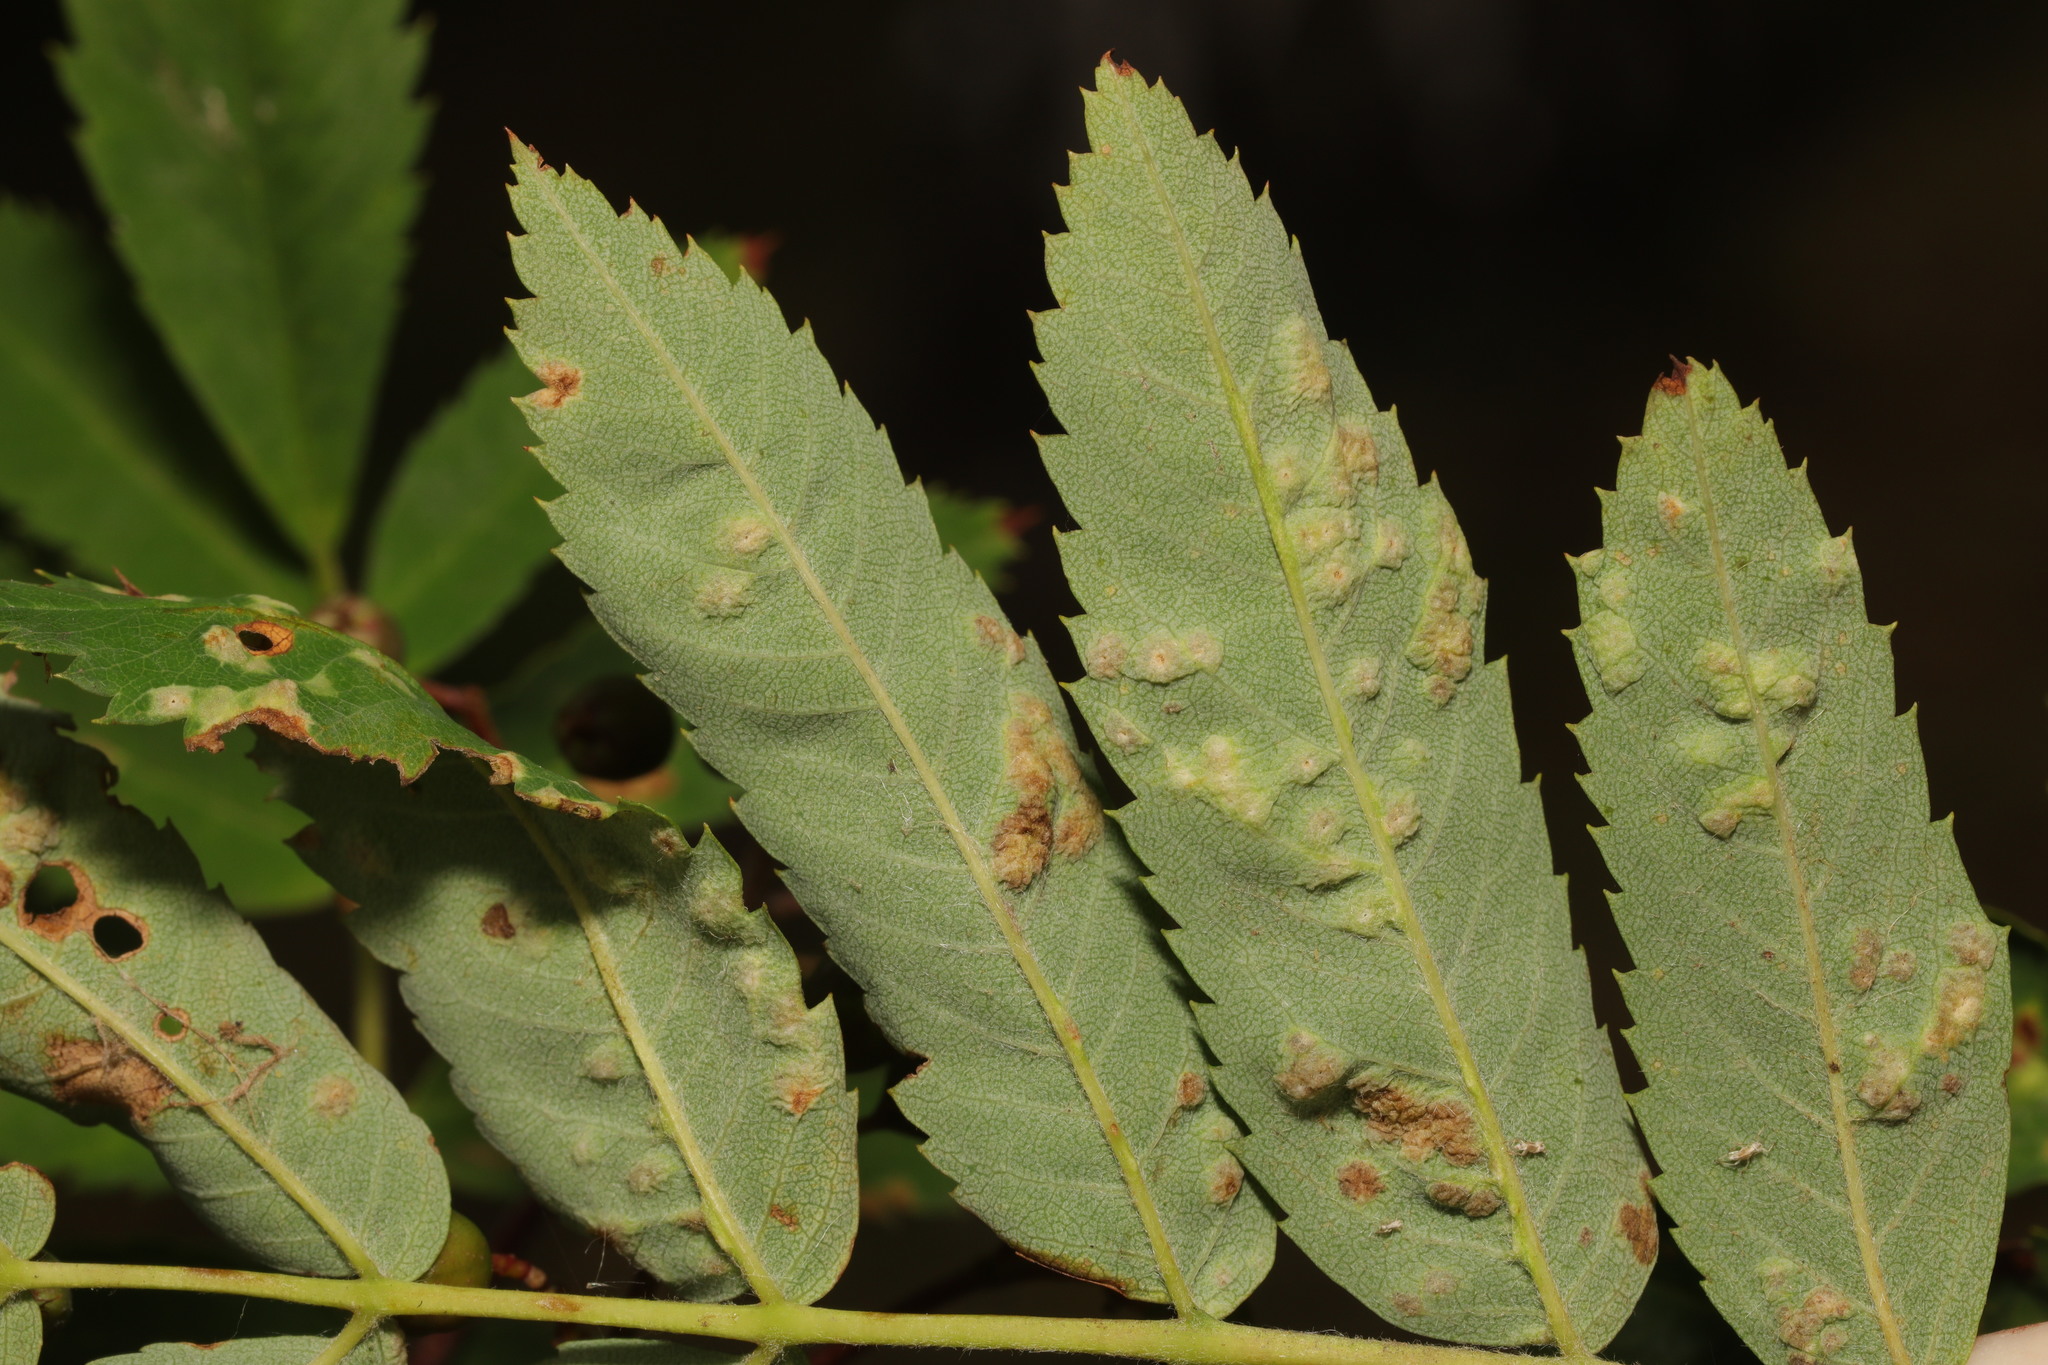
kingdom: Animalia
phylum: Arthropoda
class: Arachnida
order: Trombidiformes
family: Eriophyidae
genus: Eriophyes
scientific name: Eriophyes pyri
